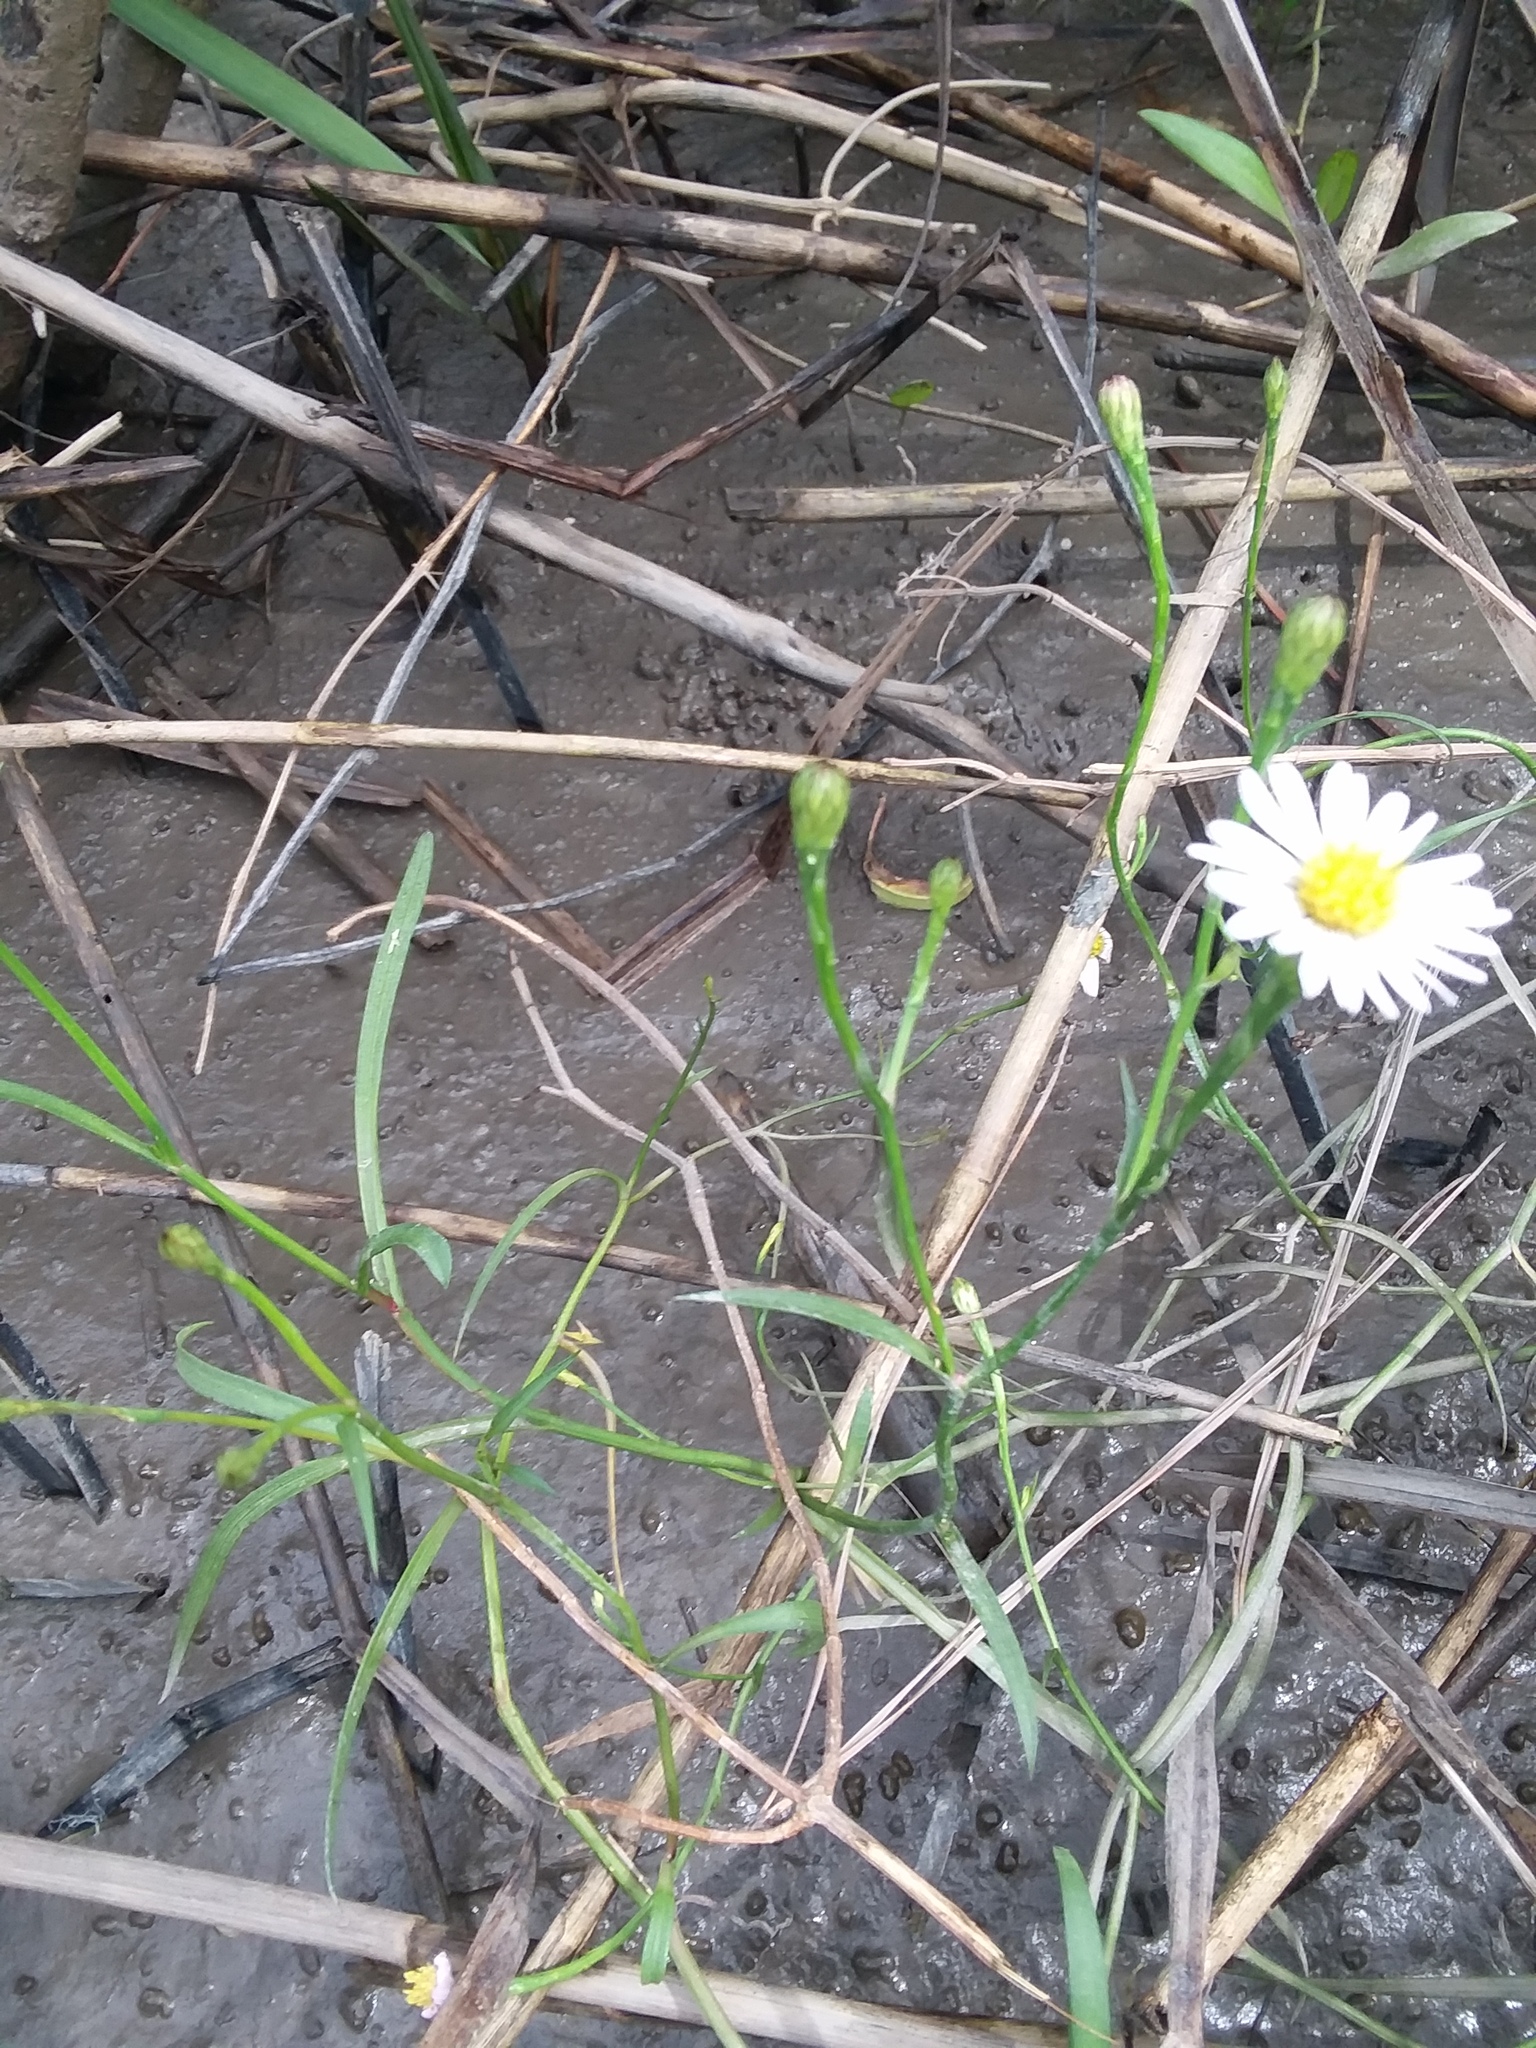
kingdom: Plantae
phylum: Tracheophyta
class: Magnoliopsida
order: Asterales
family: Asteraceae
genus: Symphyotrichum
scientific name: Symphyotrichum tenuifolium
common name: Perennial salt-marsh aster
